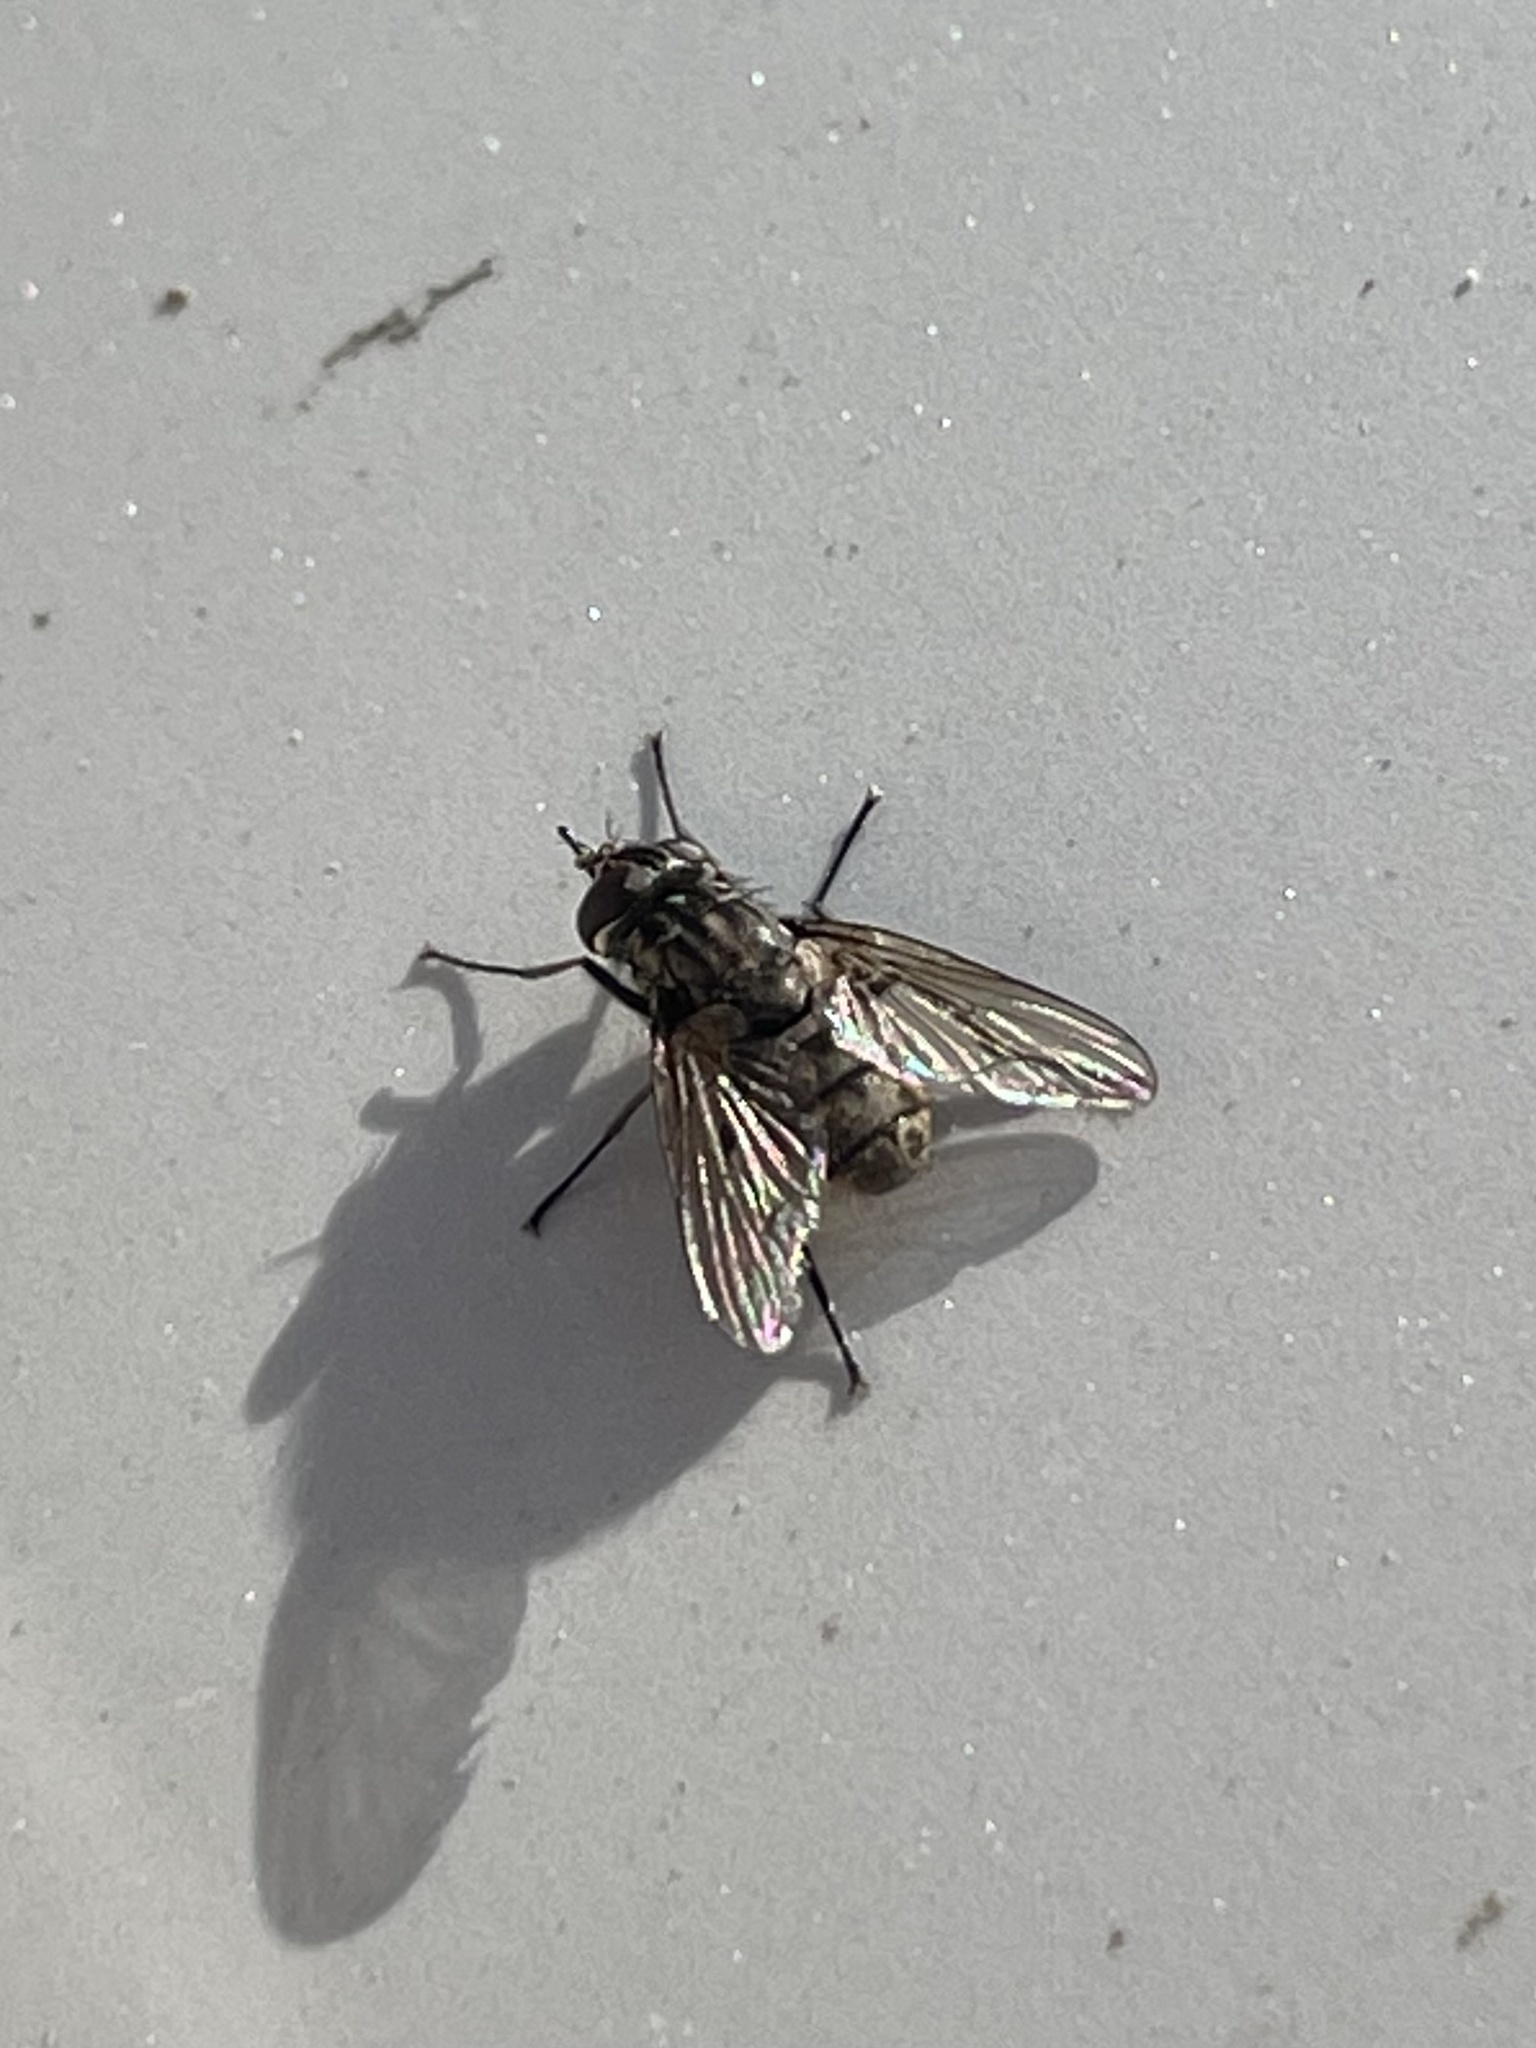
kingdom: Animalia
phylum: Arthropoda
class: Insecta
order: Diptera
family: Muscidae
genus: Stomoxys
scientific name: Stomoxys calcitrans
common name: Stable fly
